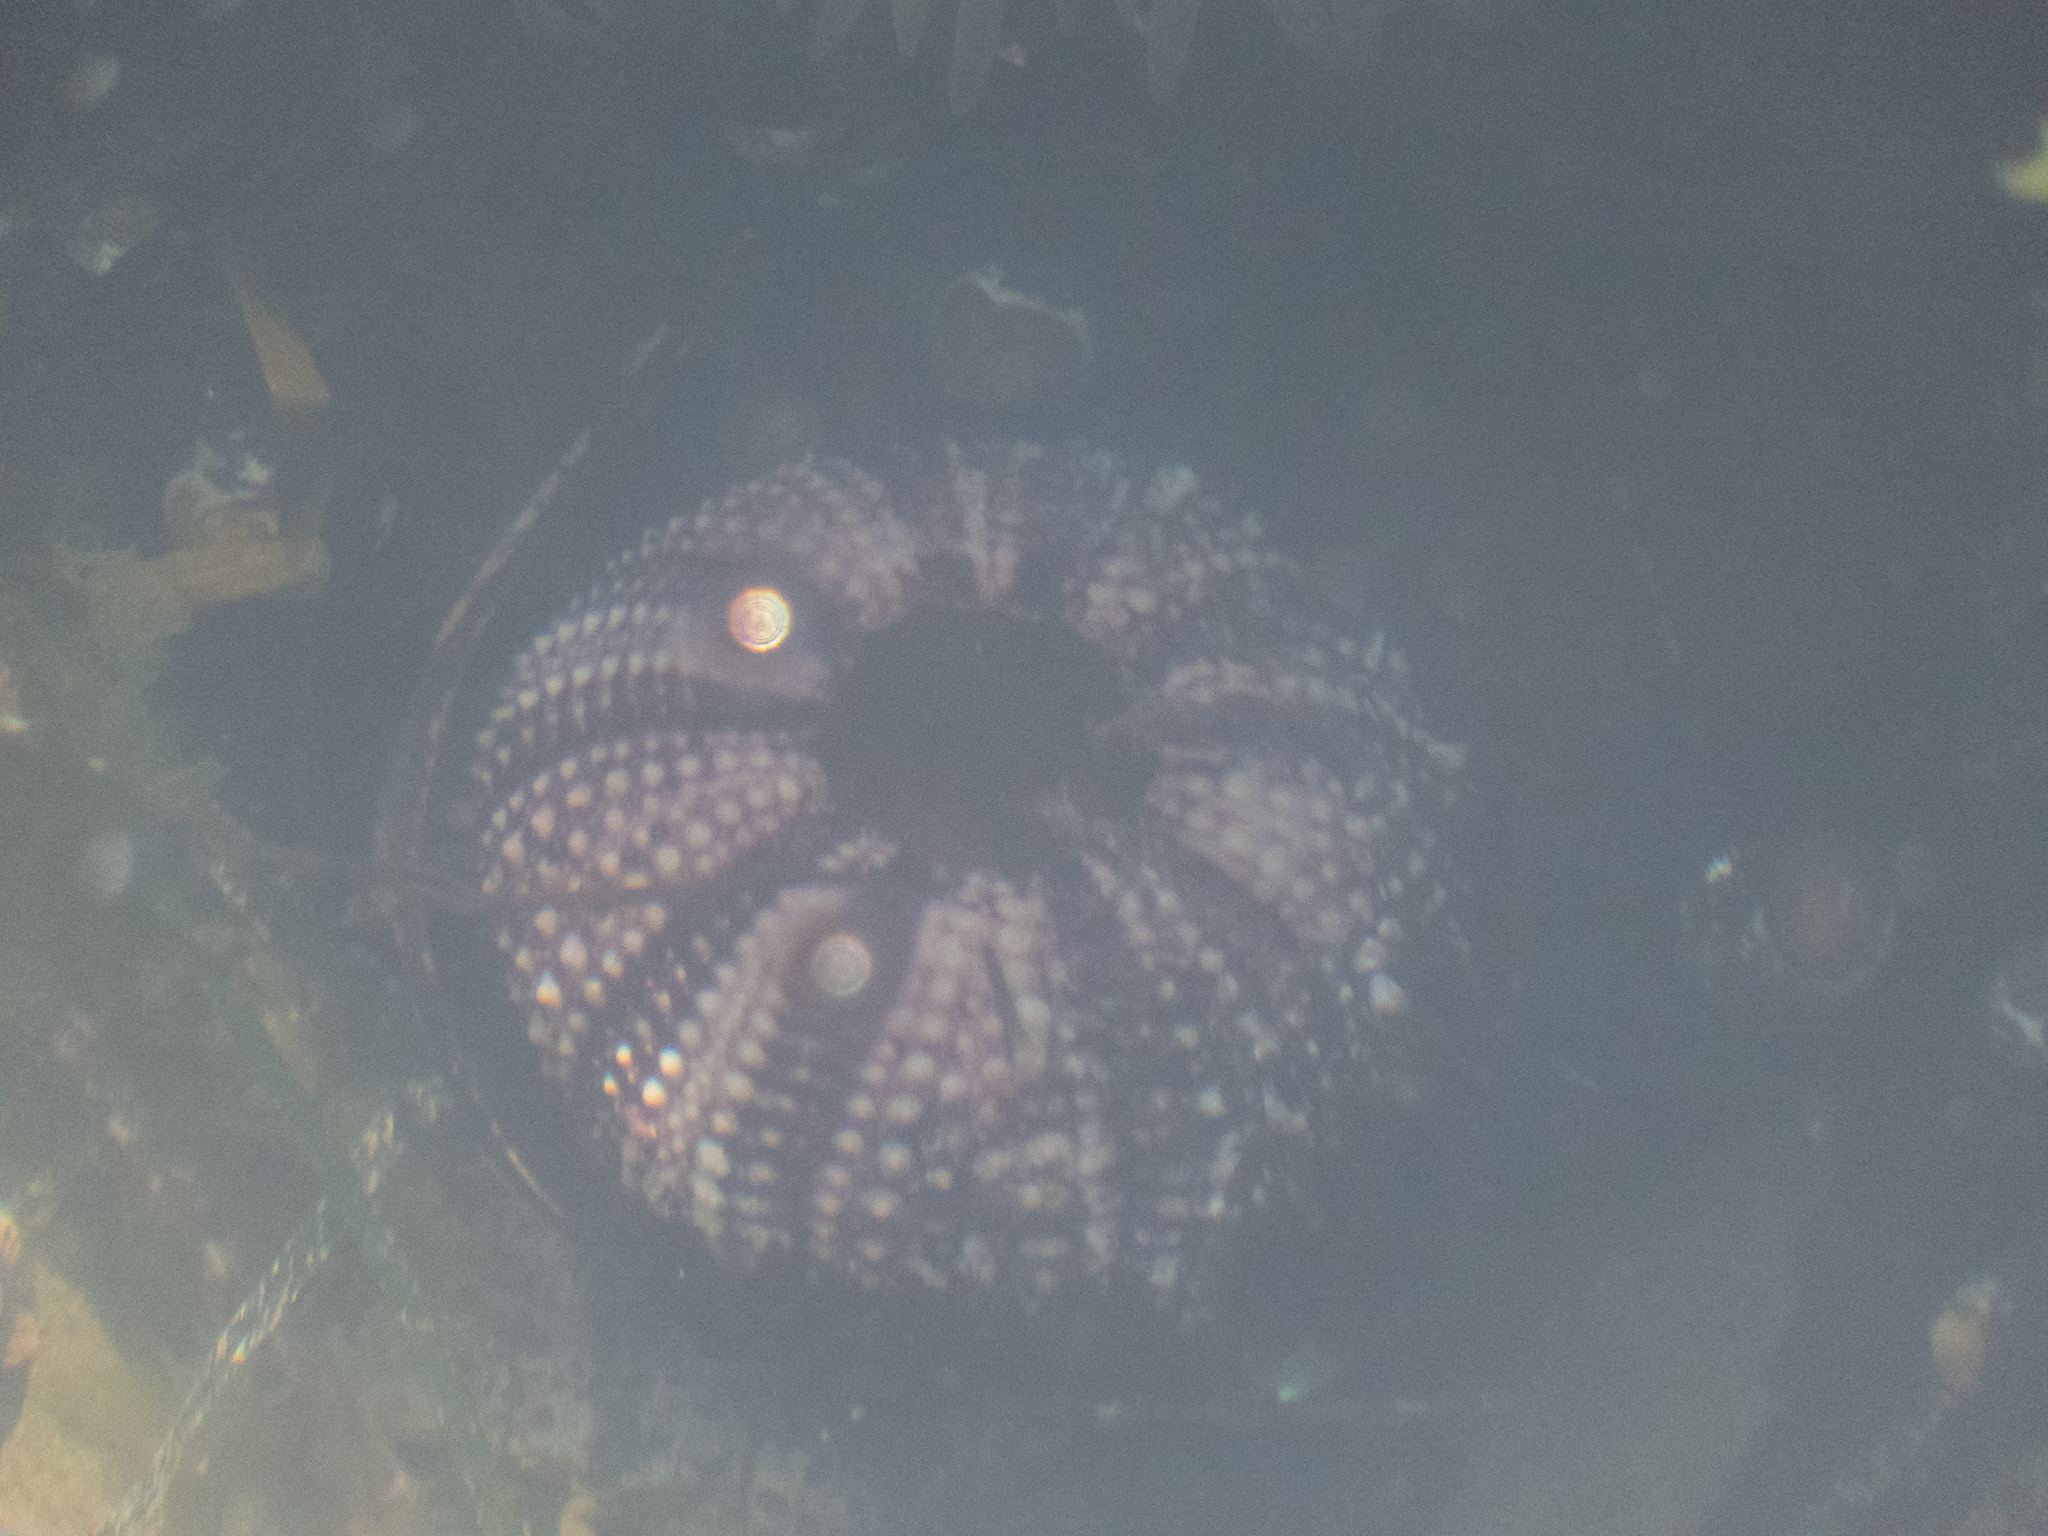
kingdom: Animalia
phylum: Echinodermata
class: Echinoidea
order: Camarodonta
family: Strongylocentrotidae
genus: Strongylocentrotus
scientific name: Strongylocentrotus purpuratus
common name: Purple sea urchin
